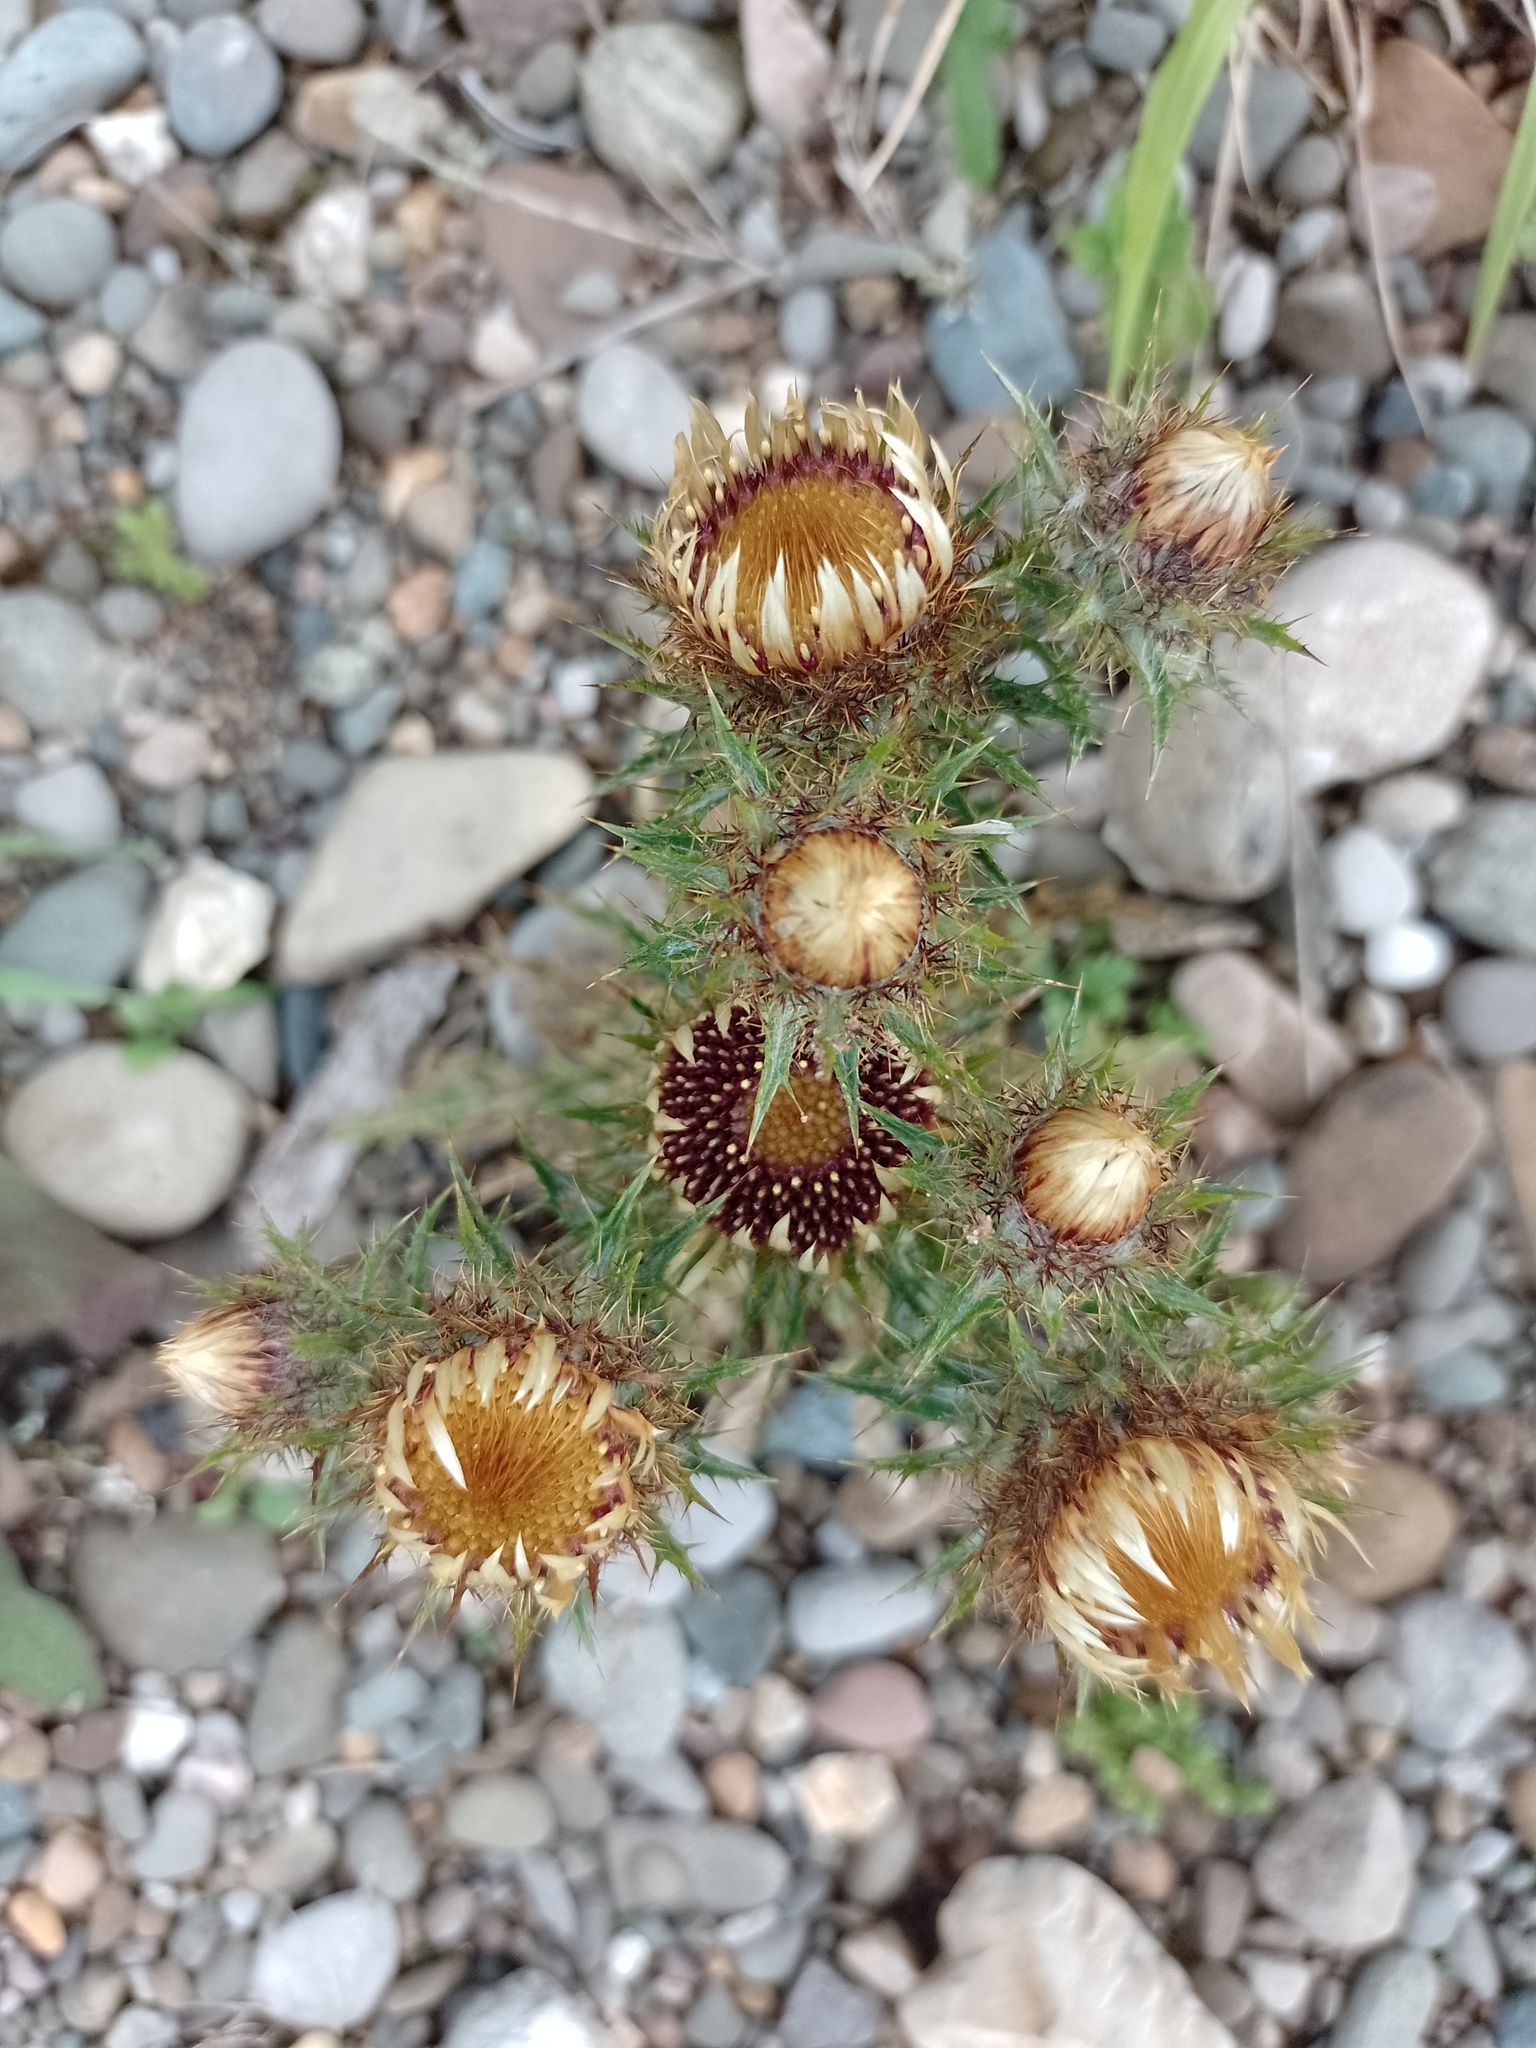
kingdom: Plantae
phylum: Tracheophyta
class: Magnoliopsida
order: Asterales
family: Asteraceae
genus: Carlina
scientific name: Carlina vulgaris
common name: Carline thistle
